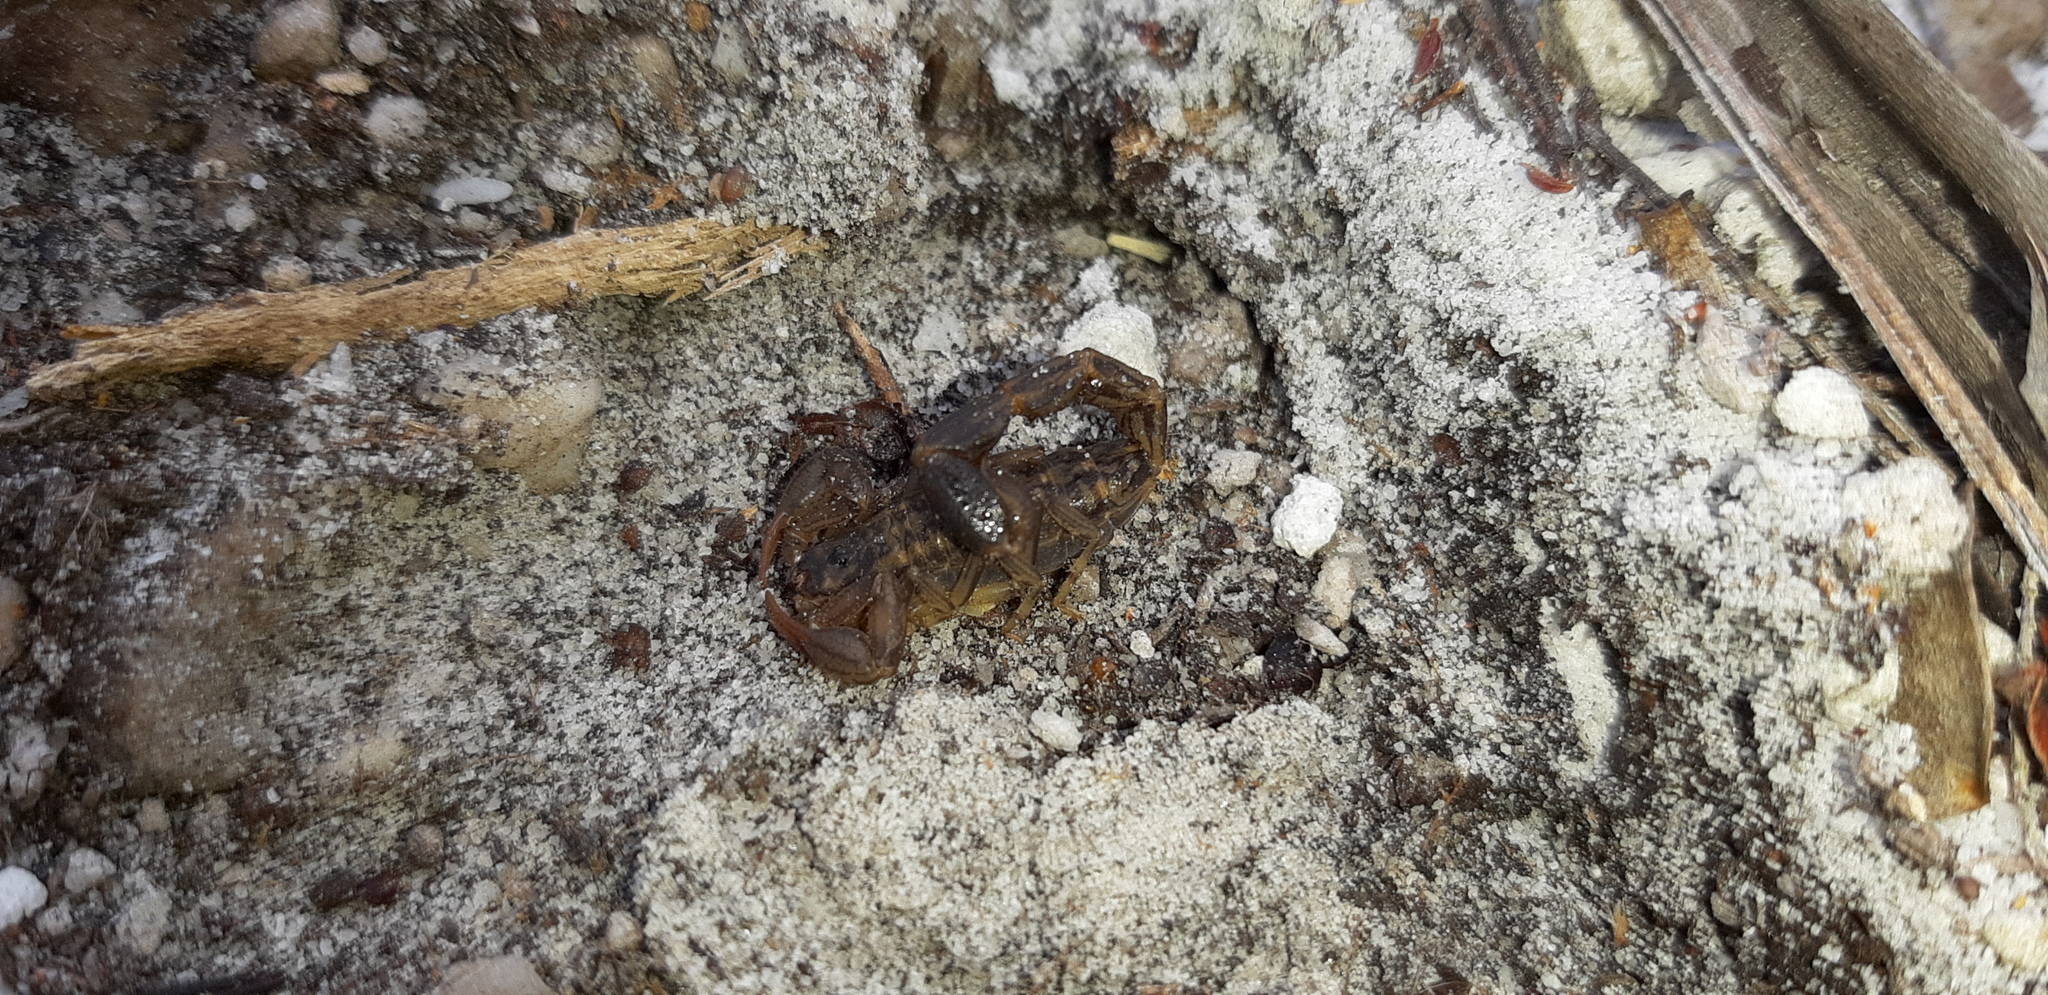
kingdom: Animalia
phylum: Arthropoda
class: Arachnida
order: Scorpiones
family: Buthidae
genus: Uroplectes
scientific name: Uroplectes lineatus
